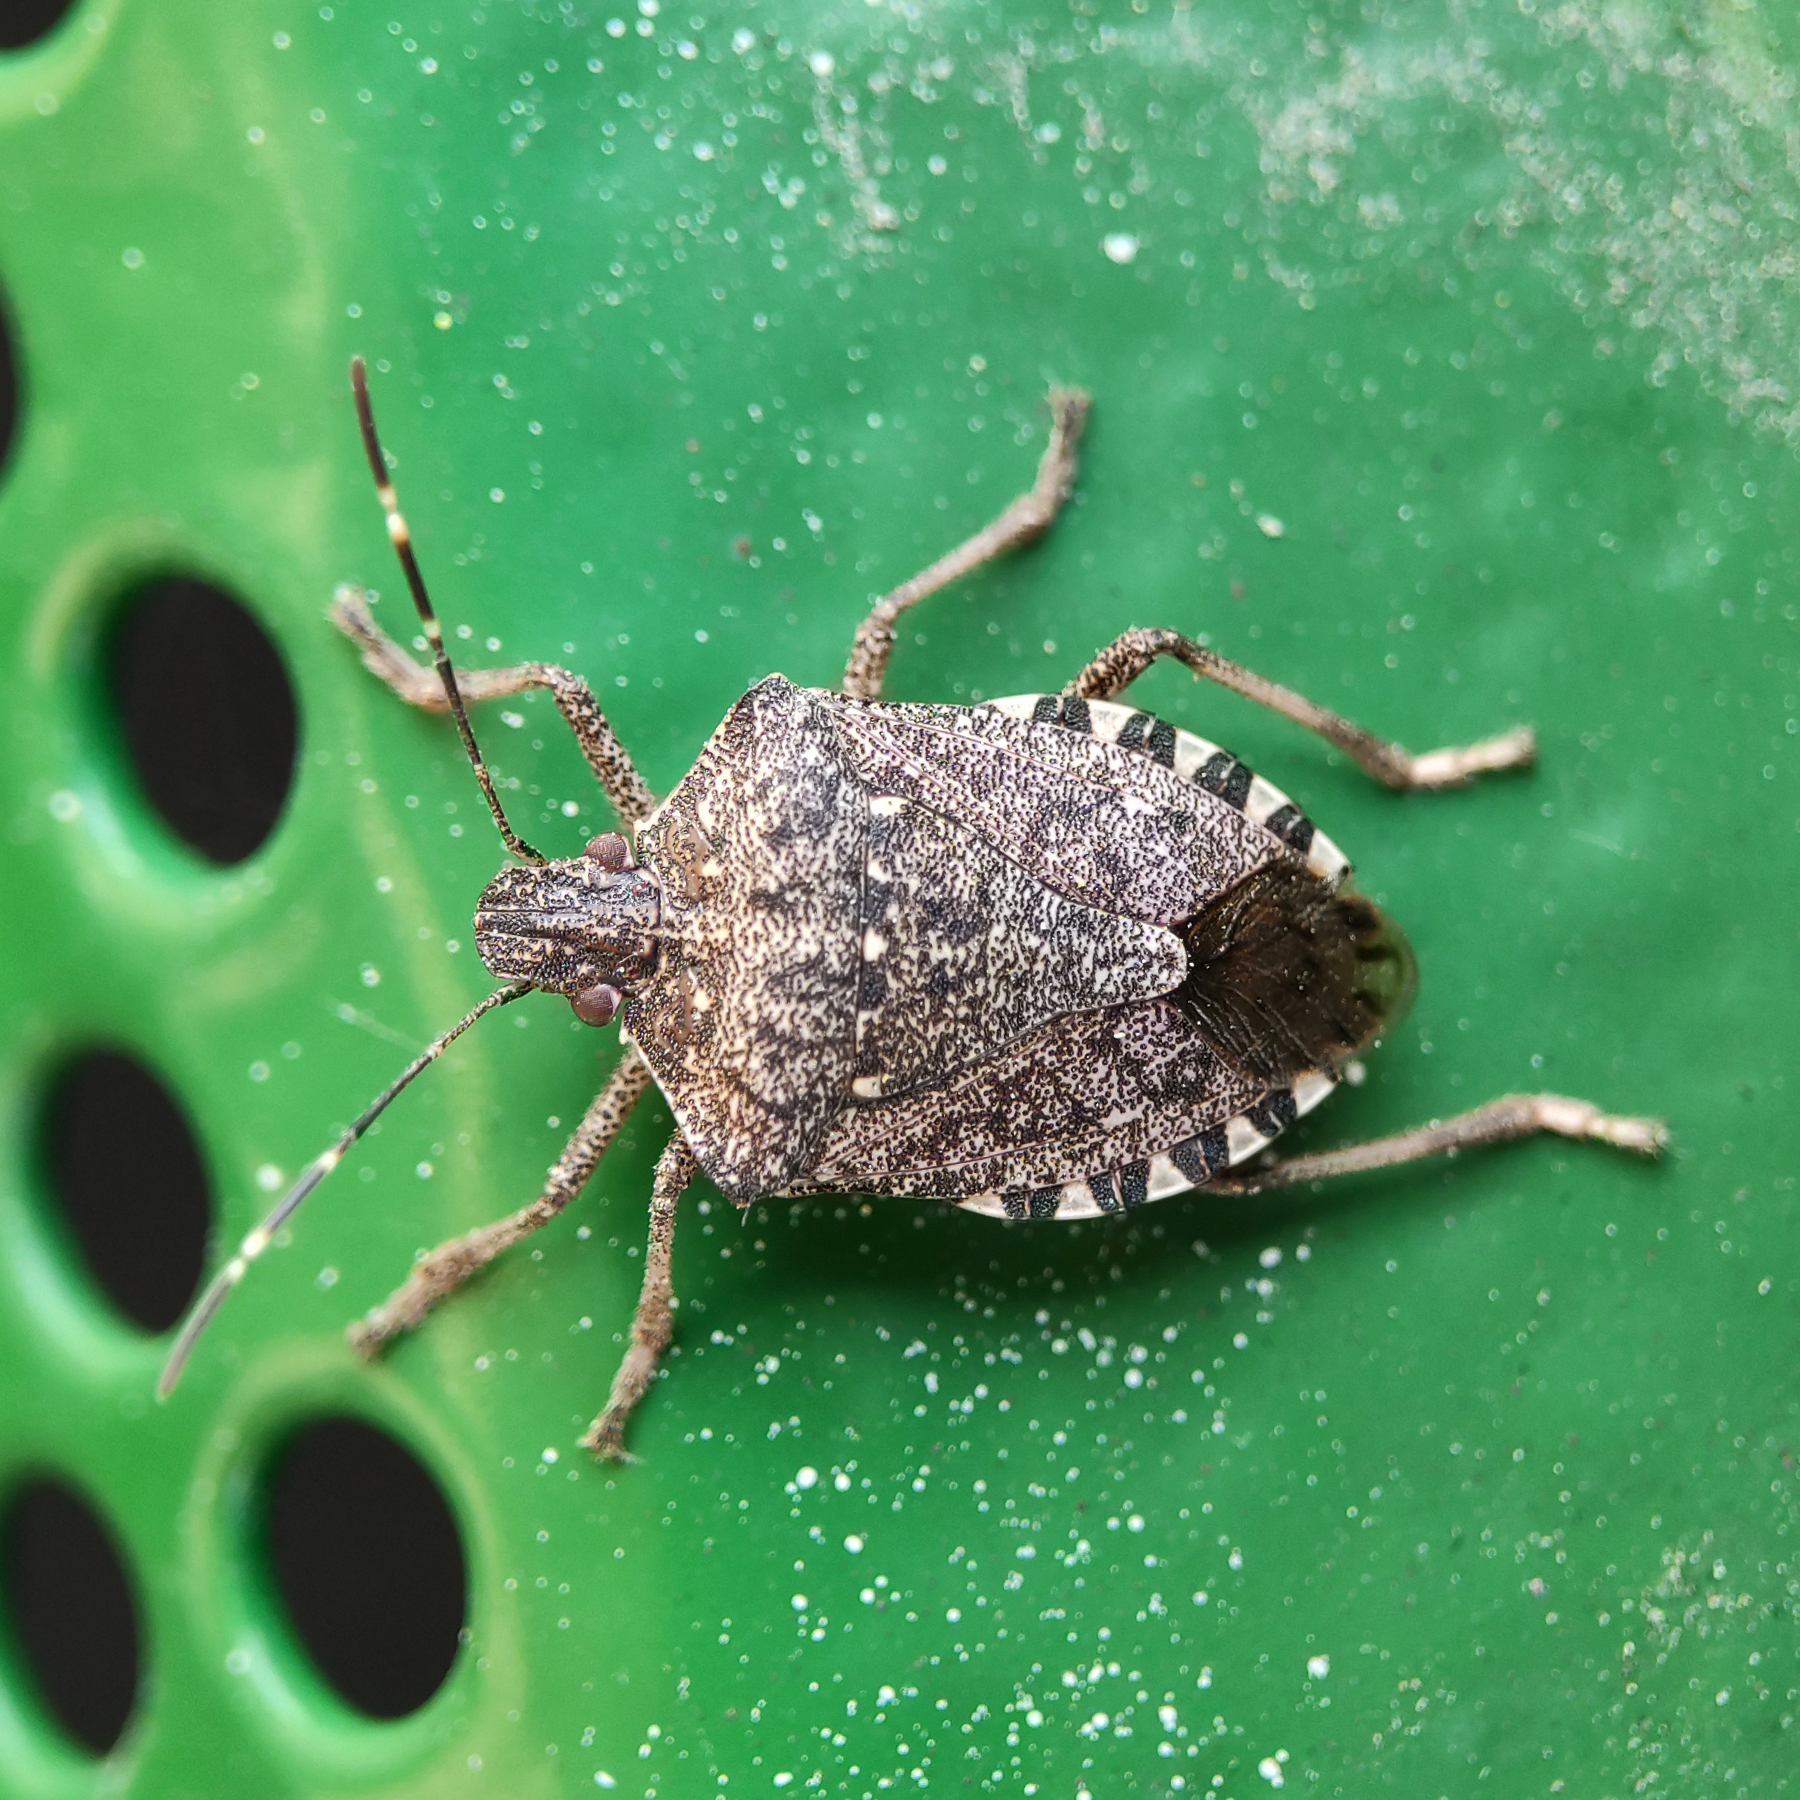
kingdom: Animalia
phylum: Arthropoda
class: Insecta
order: Hemiptera
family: Pentatomidae
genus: Halyomorpha
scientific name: Halyomorpha halys
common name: Brown marmorated stink bug
